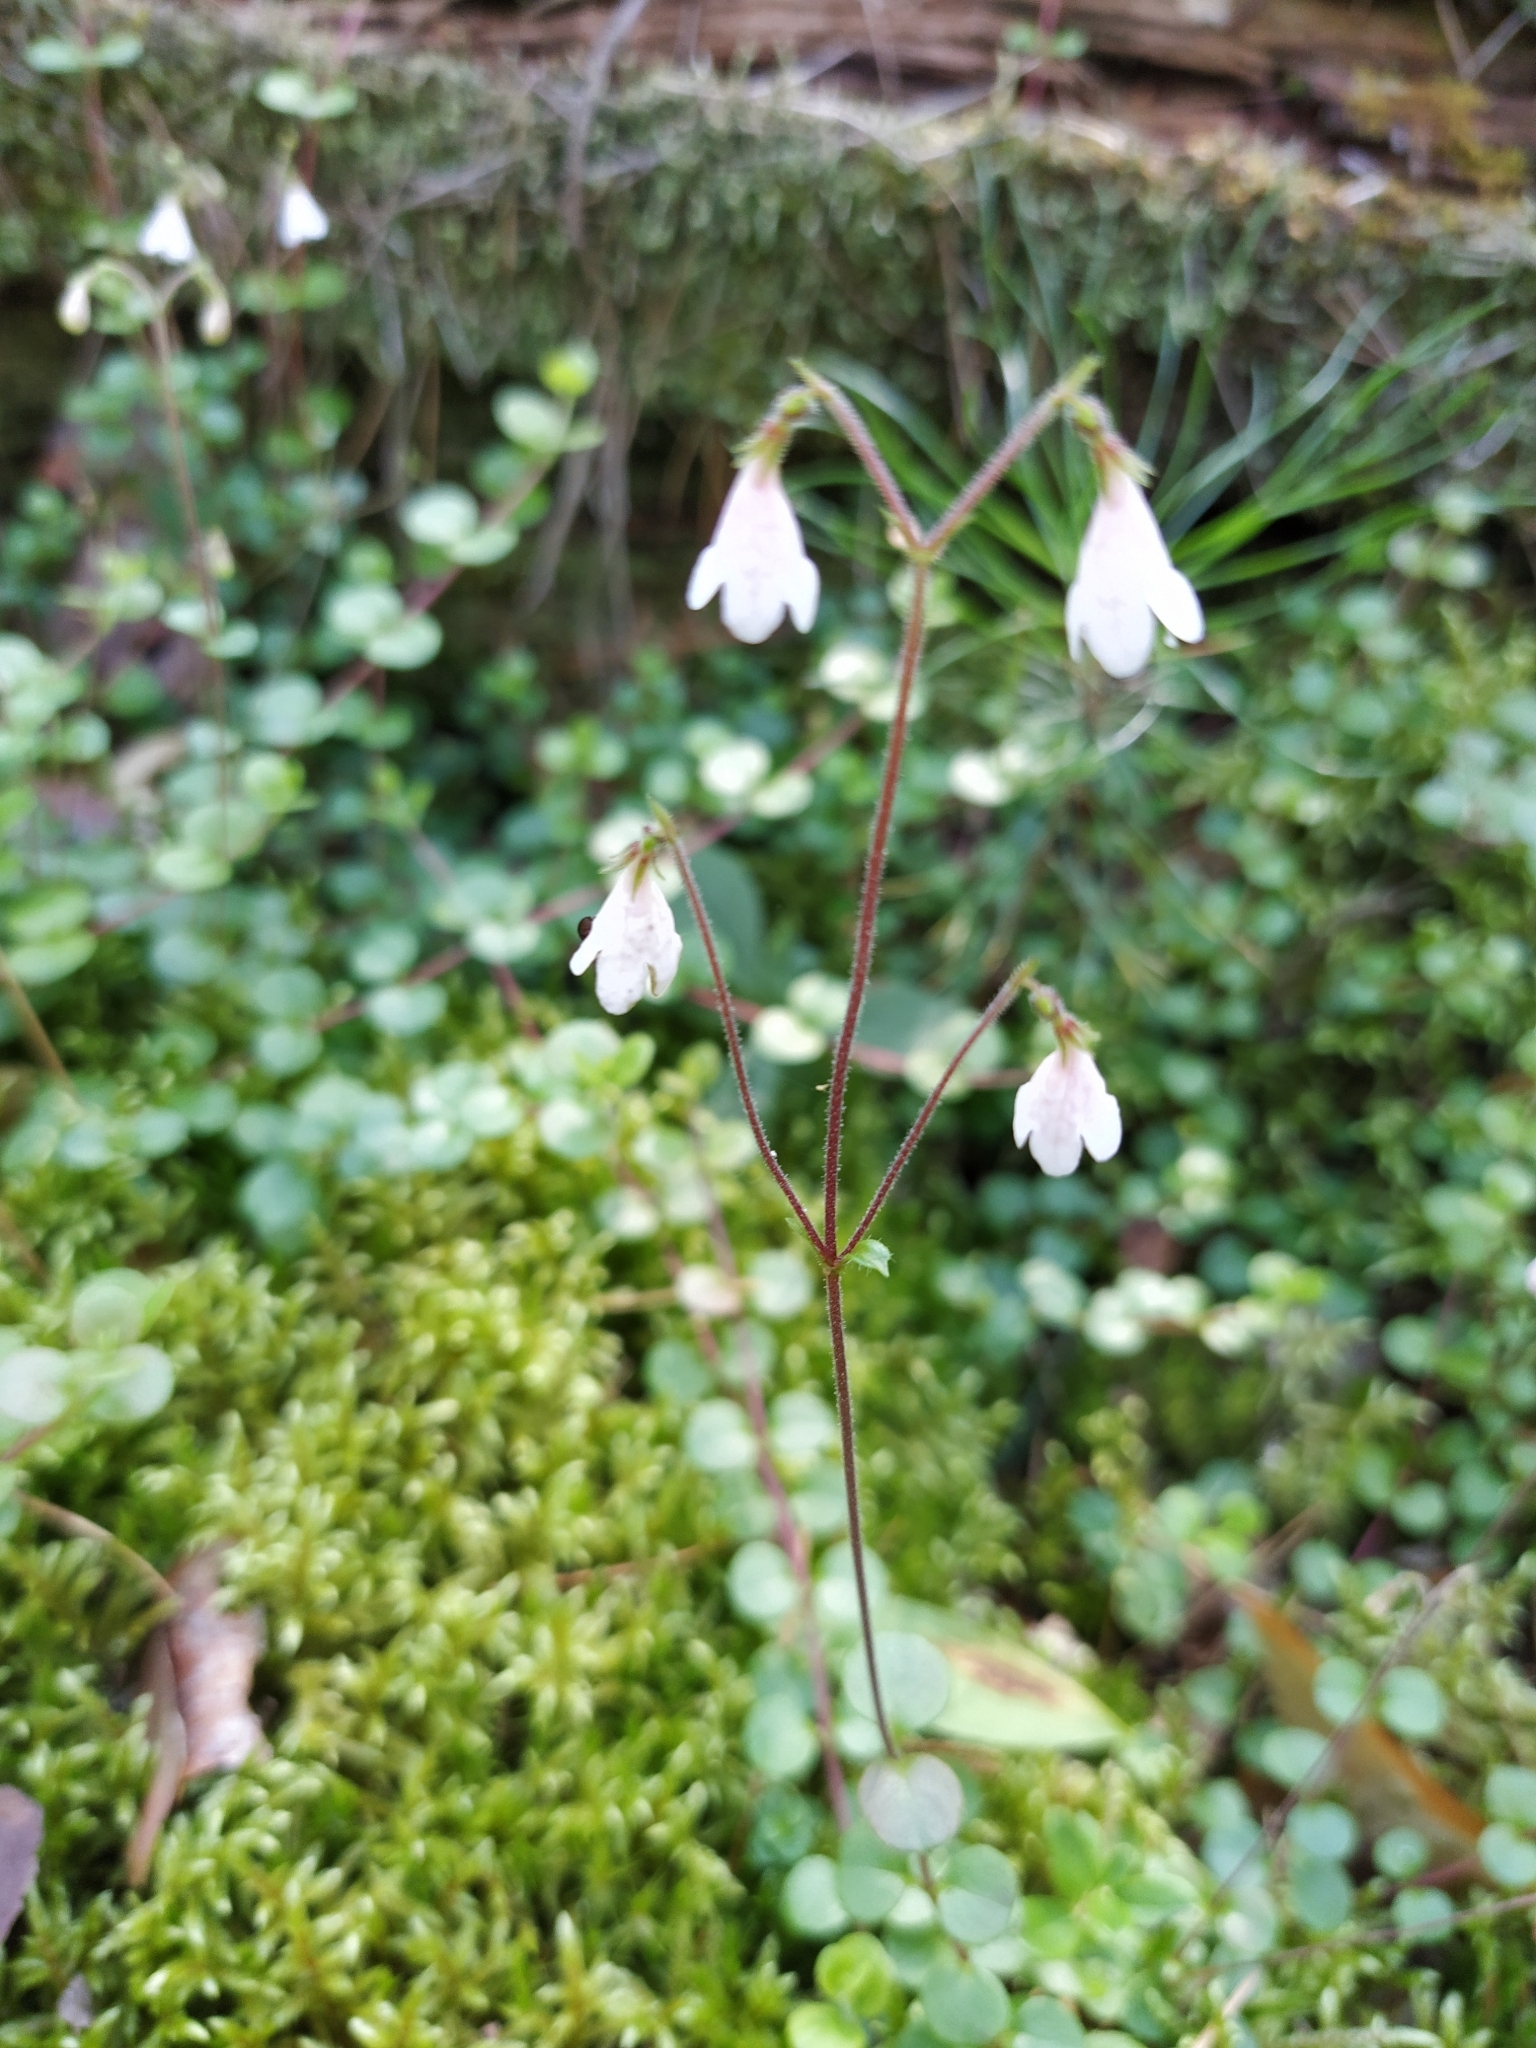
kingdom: Plantae
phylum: Tracheophyta
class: Magnoliopsida
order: Dipsacales
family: Caprifoliaceae
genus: Linnaea
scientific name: Linnaea borealis
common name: Twinflower
